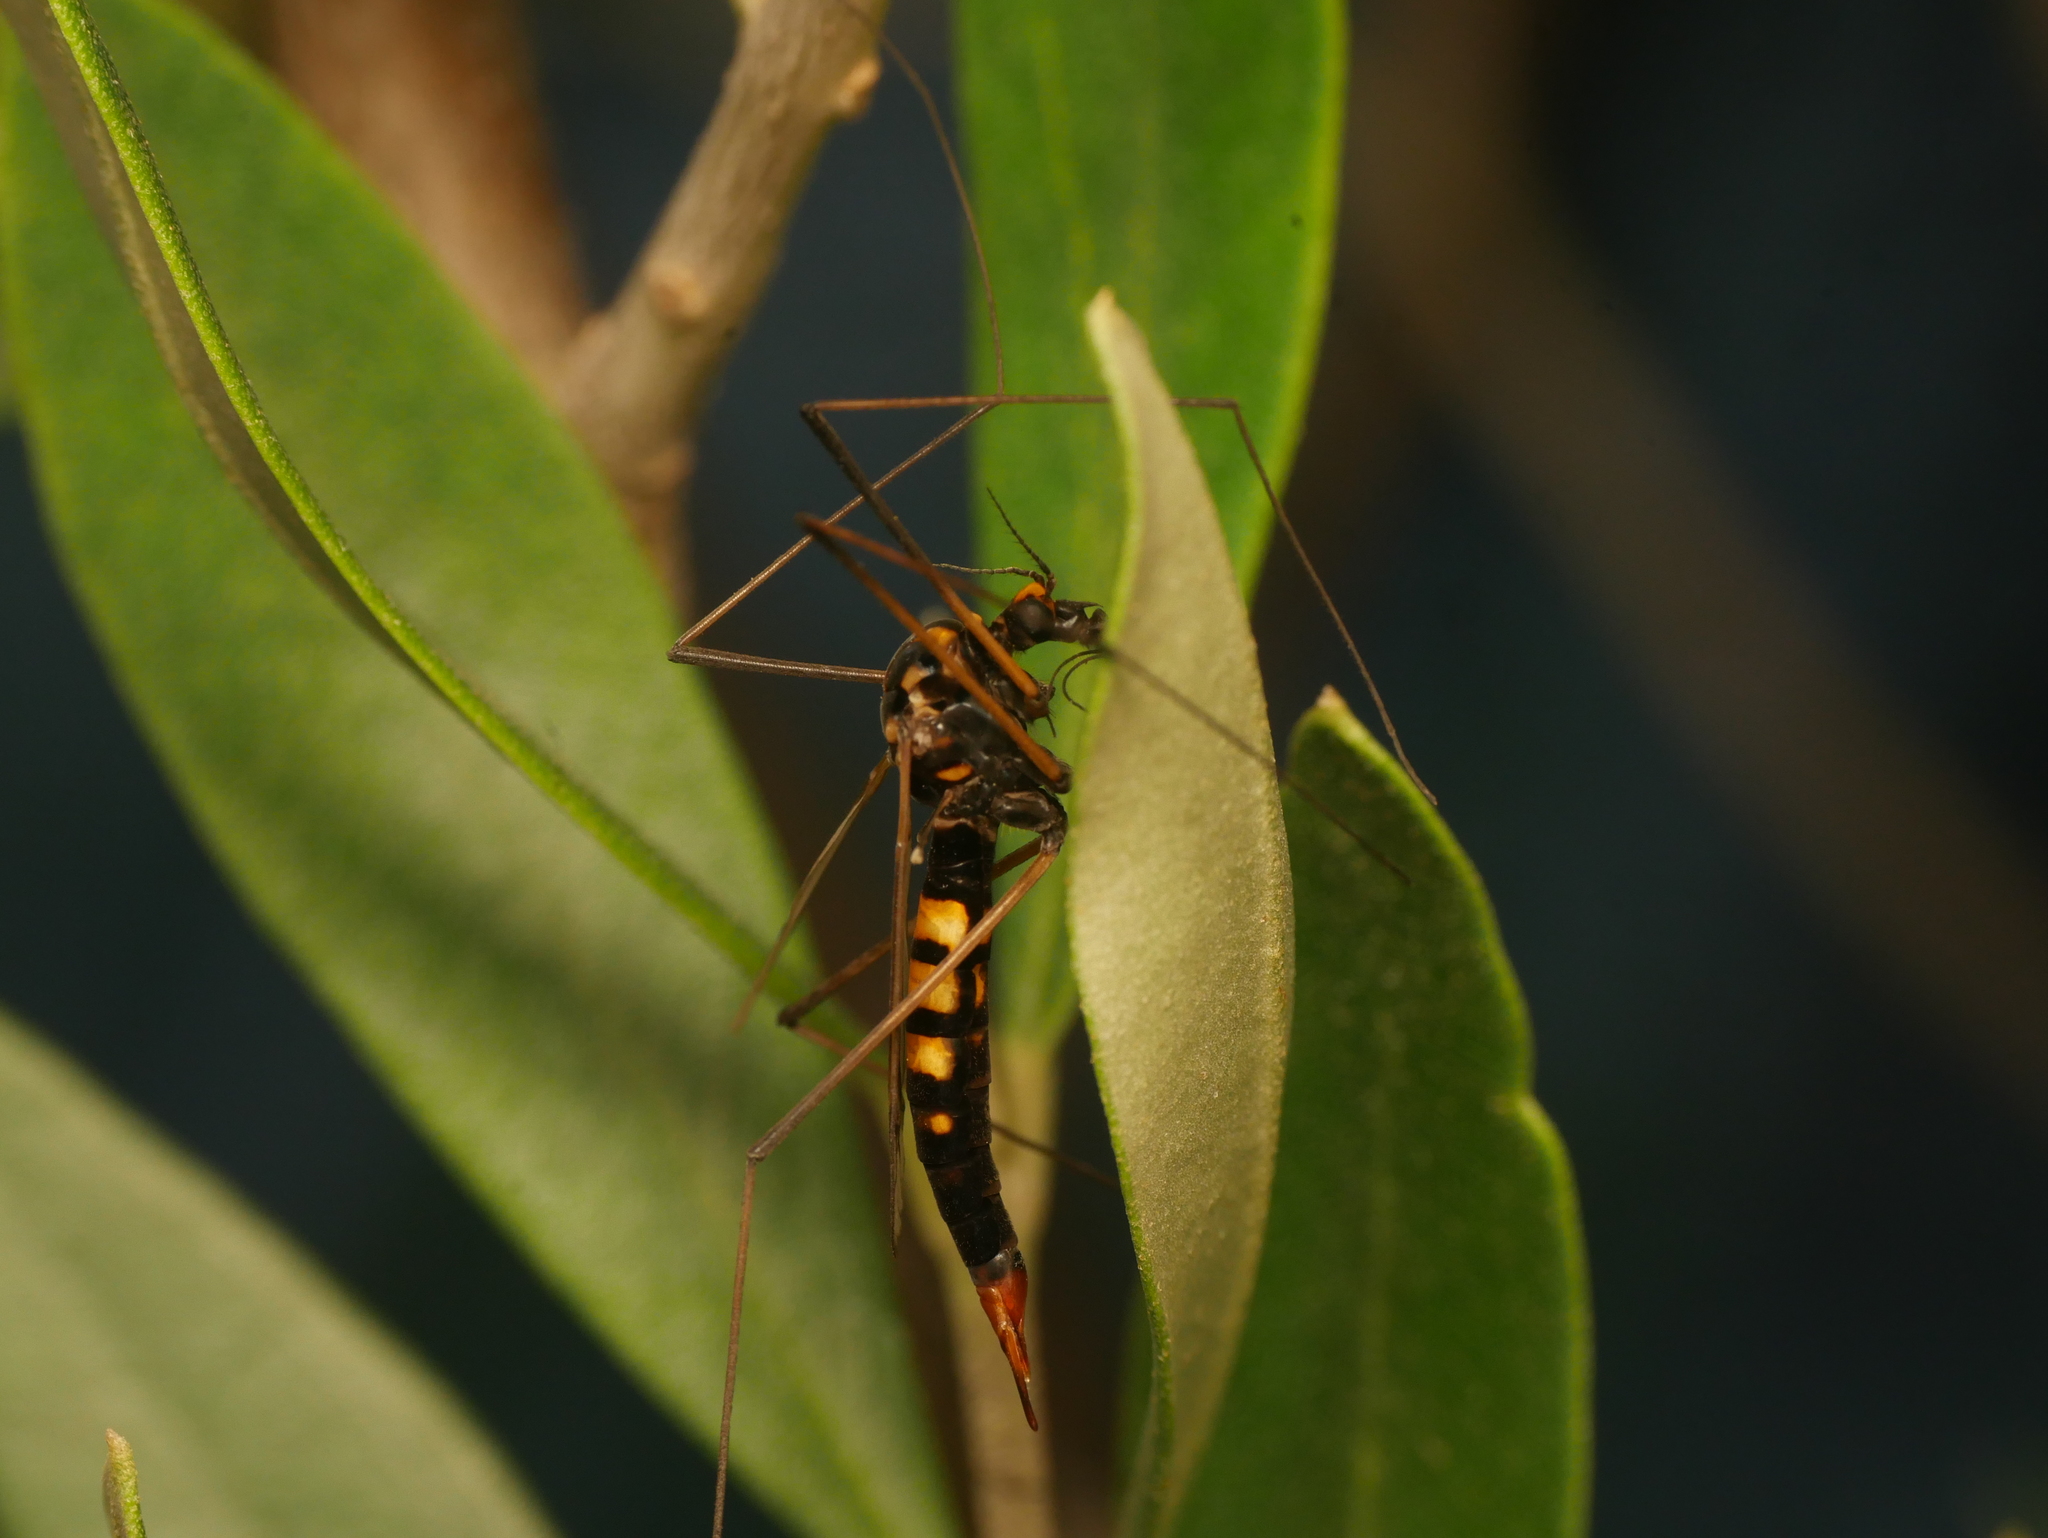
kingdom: Animalia
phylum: Arthropoda
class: Insecta
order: Diptera
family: Tipulidae
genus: Nephrotoma
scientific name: Nephrotoma crocata
